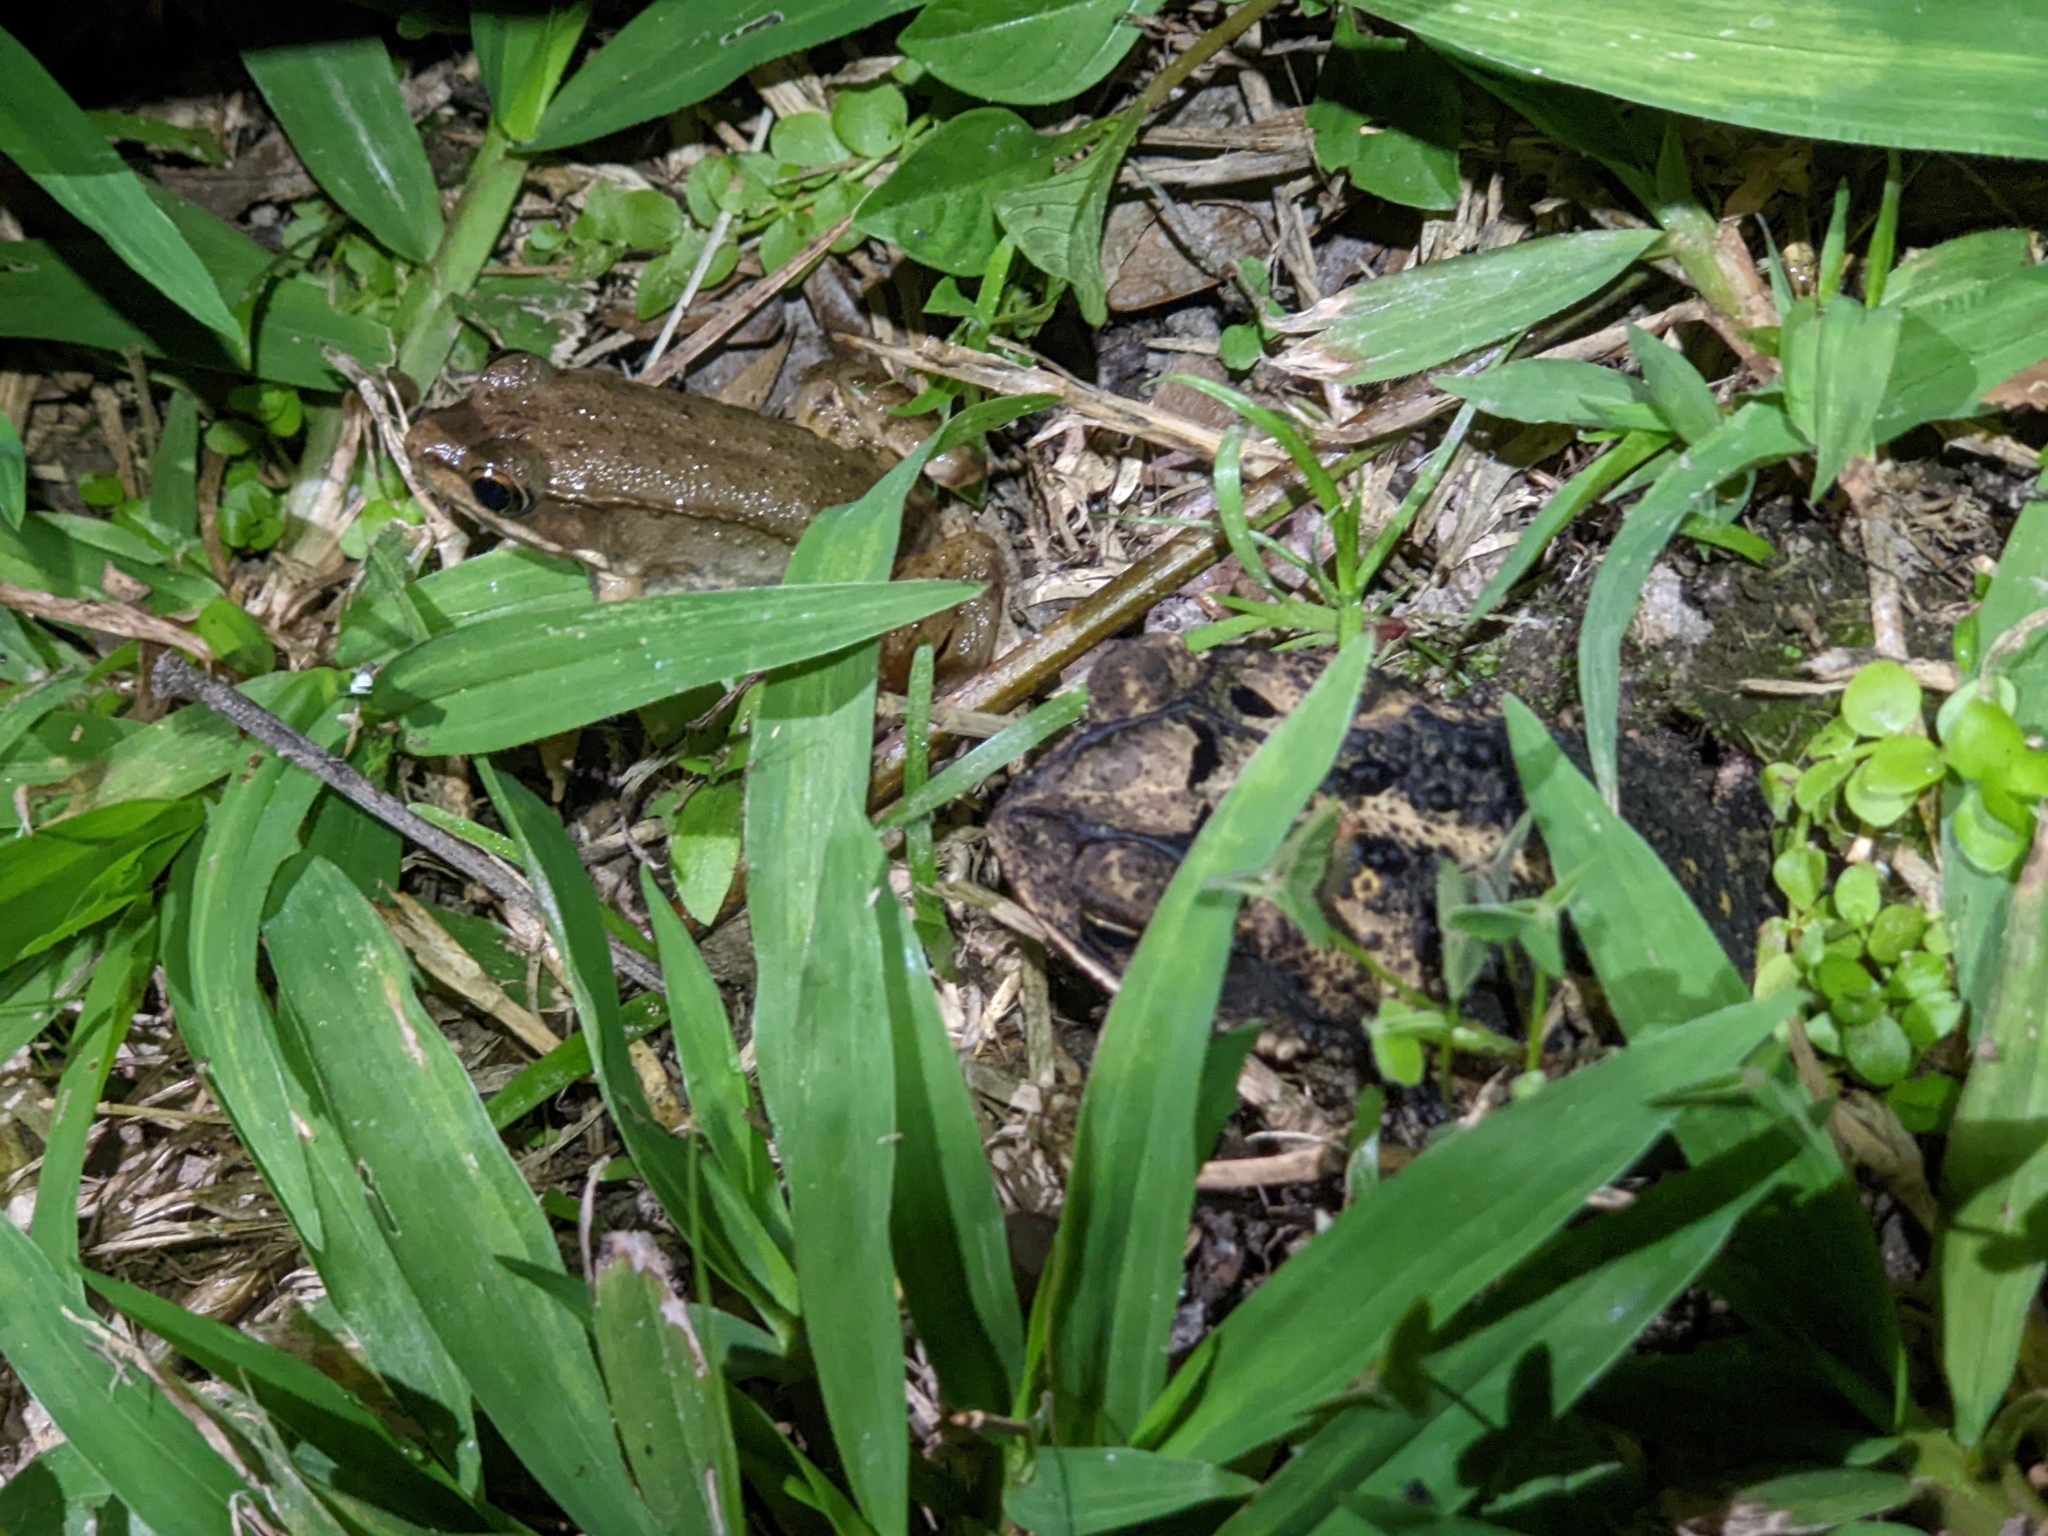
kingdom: Animalia
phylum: Chordata
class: Amphibia
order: Anura
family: Ranidae
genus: Lithobates
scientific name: Lithobates clamitans
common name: Green frog
